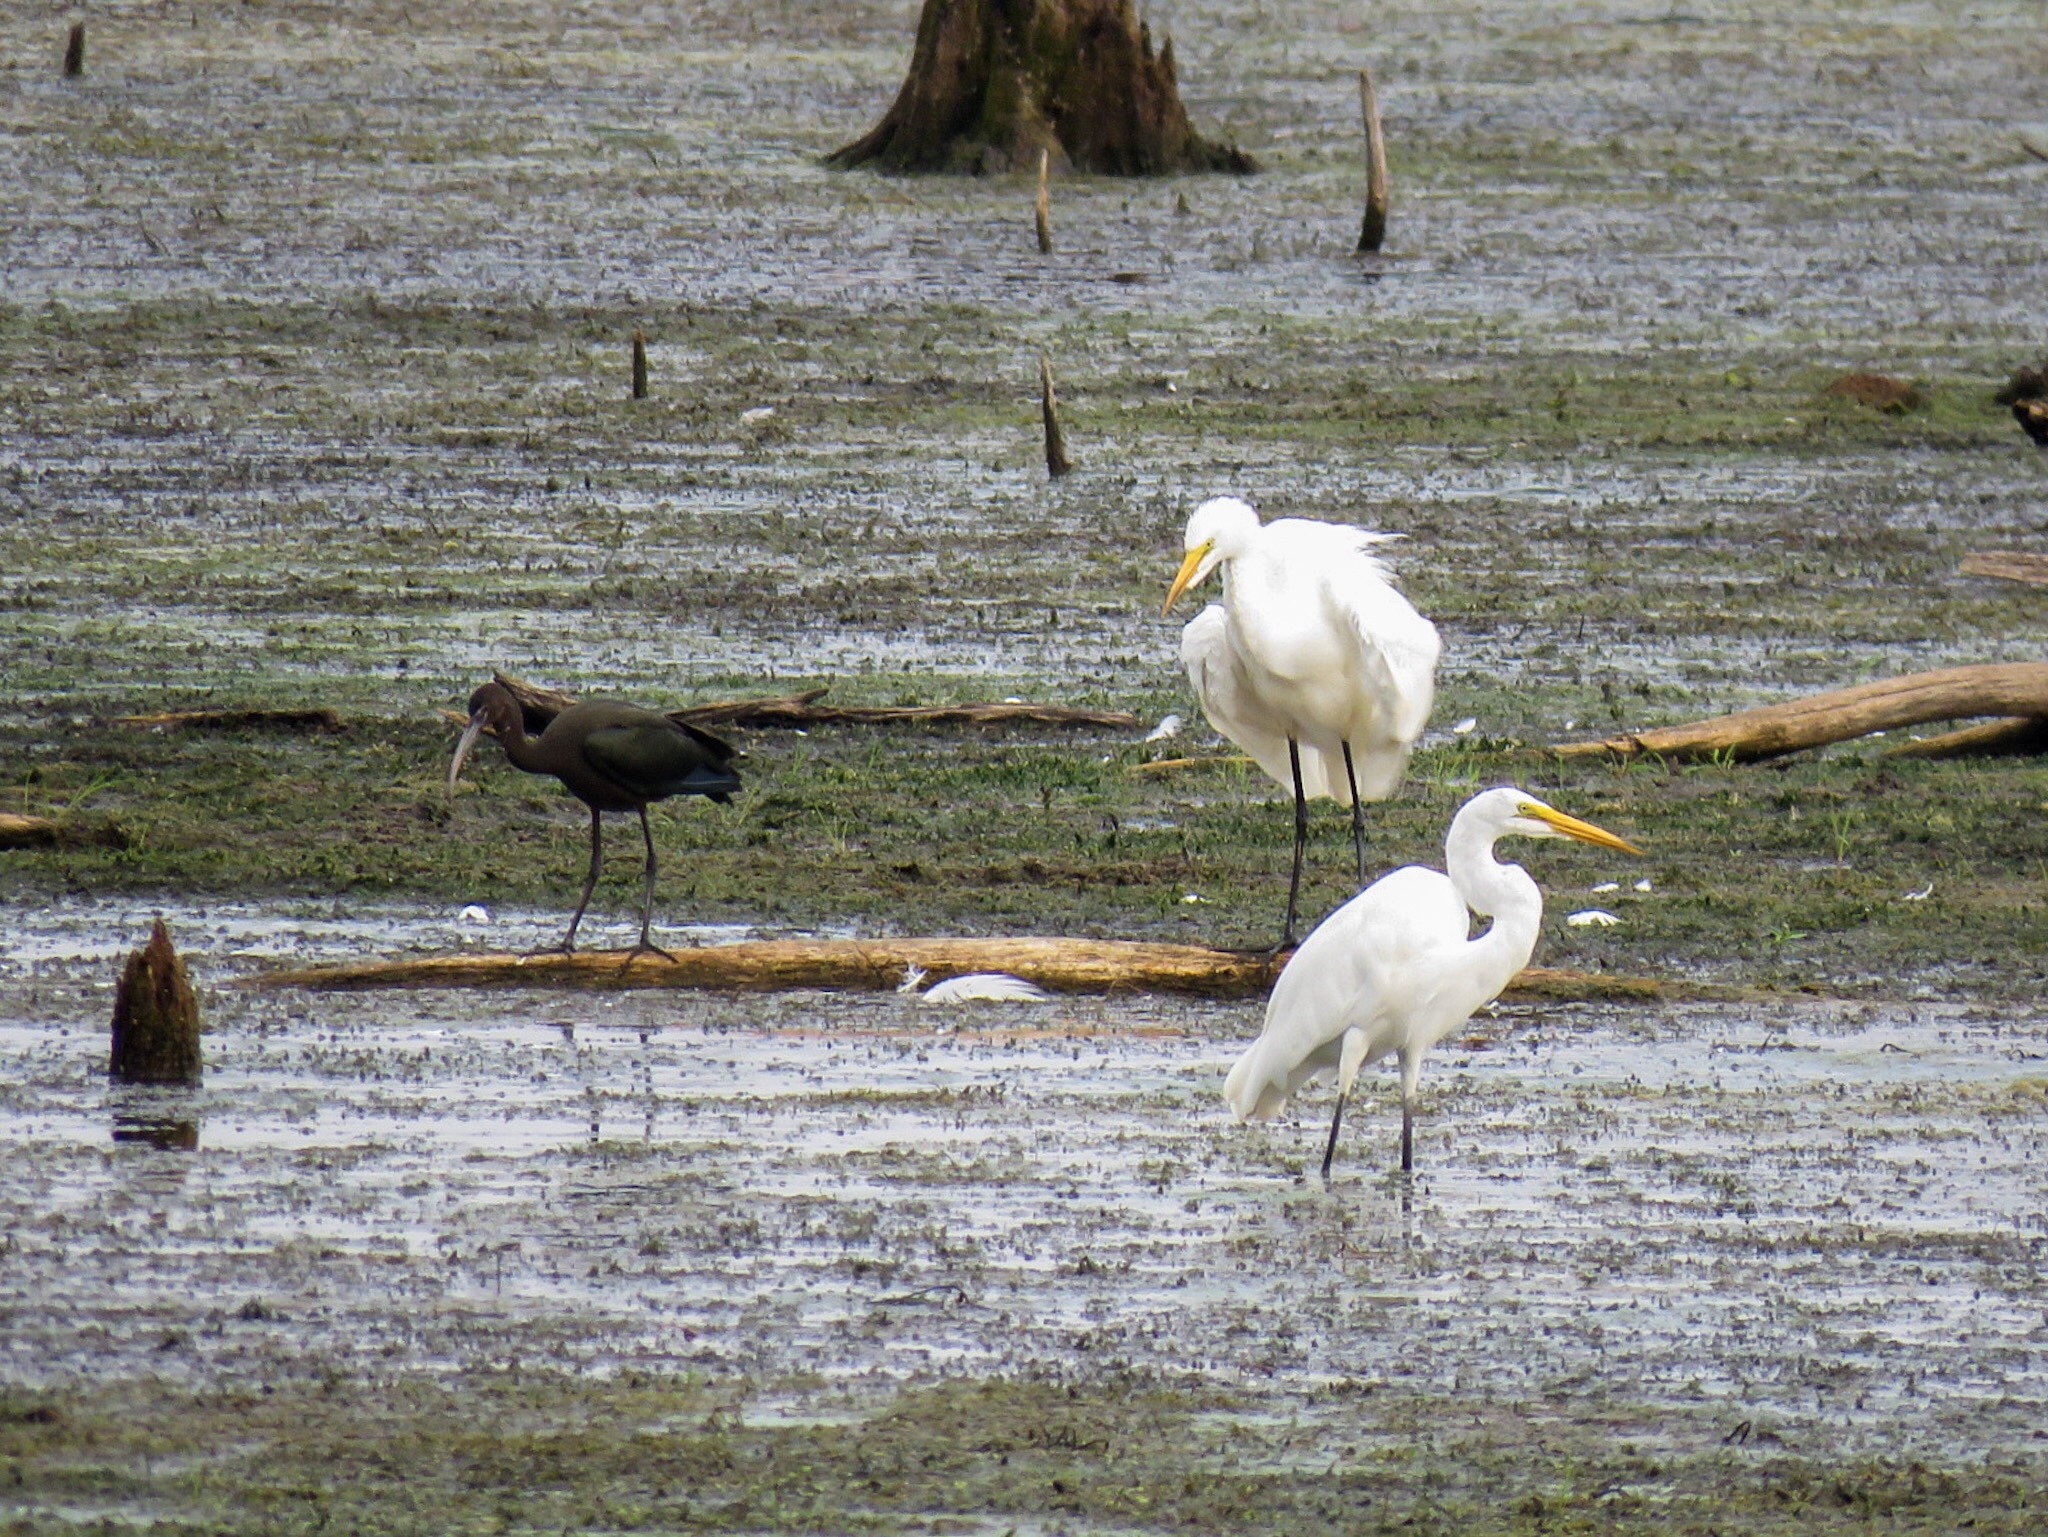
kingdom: Animalia
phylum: Chordata
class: Aves
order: Pelecaniformes
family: Threskiornithidae
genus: Plegadis
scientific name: Plegadis falcinellus
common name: Glossy ibis
